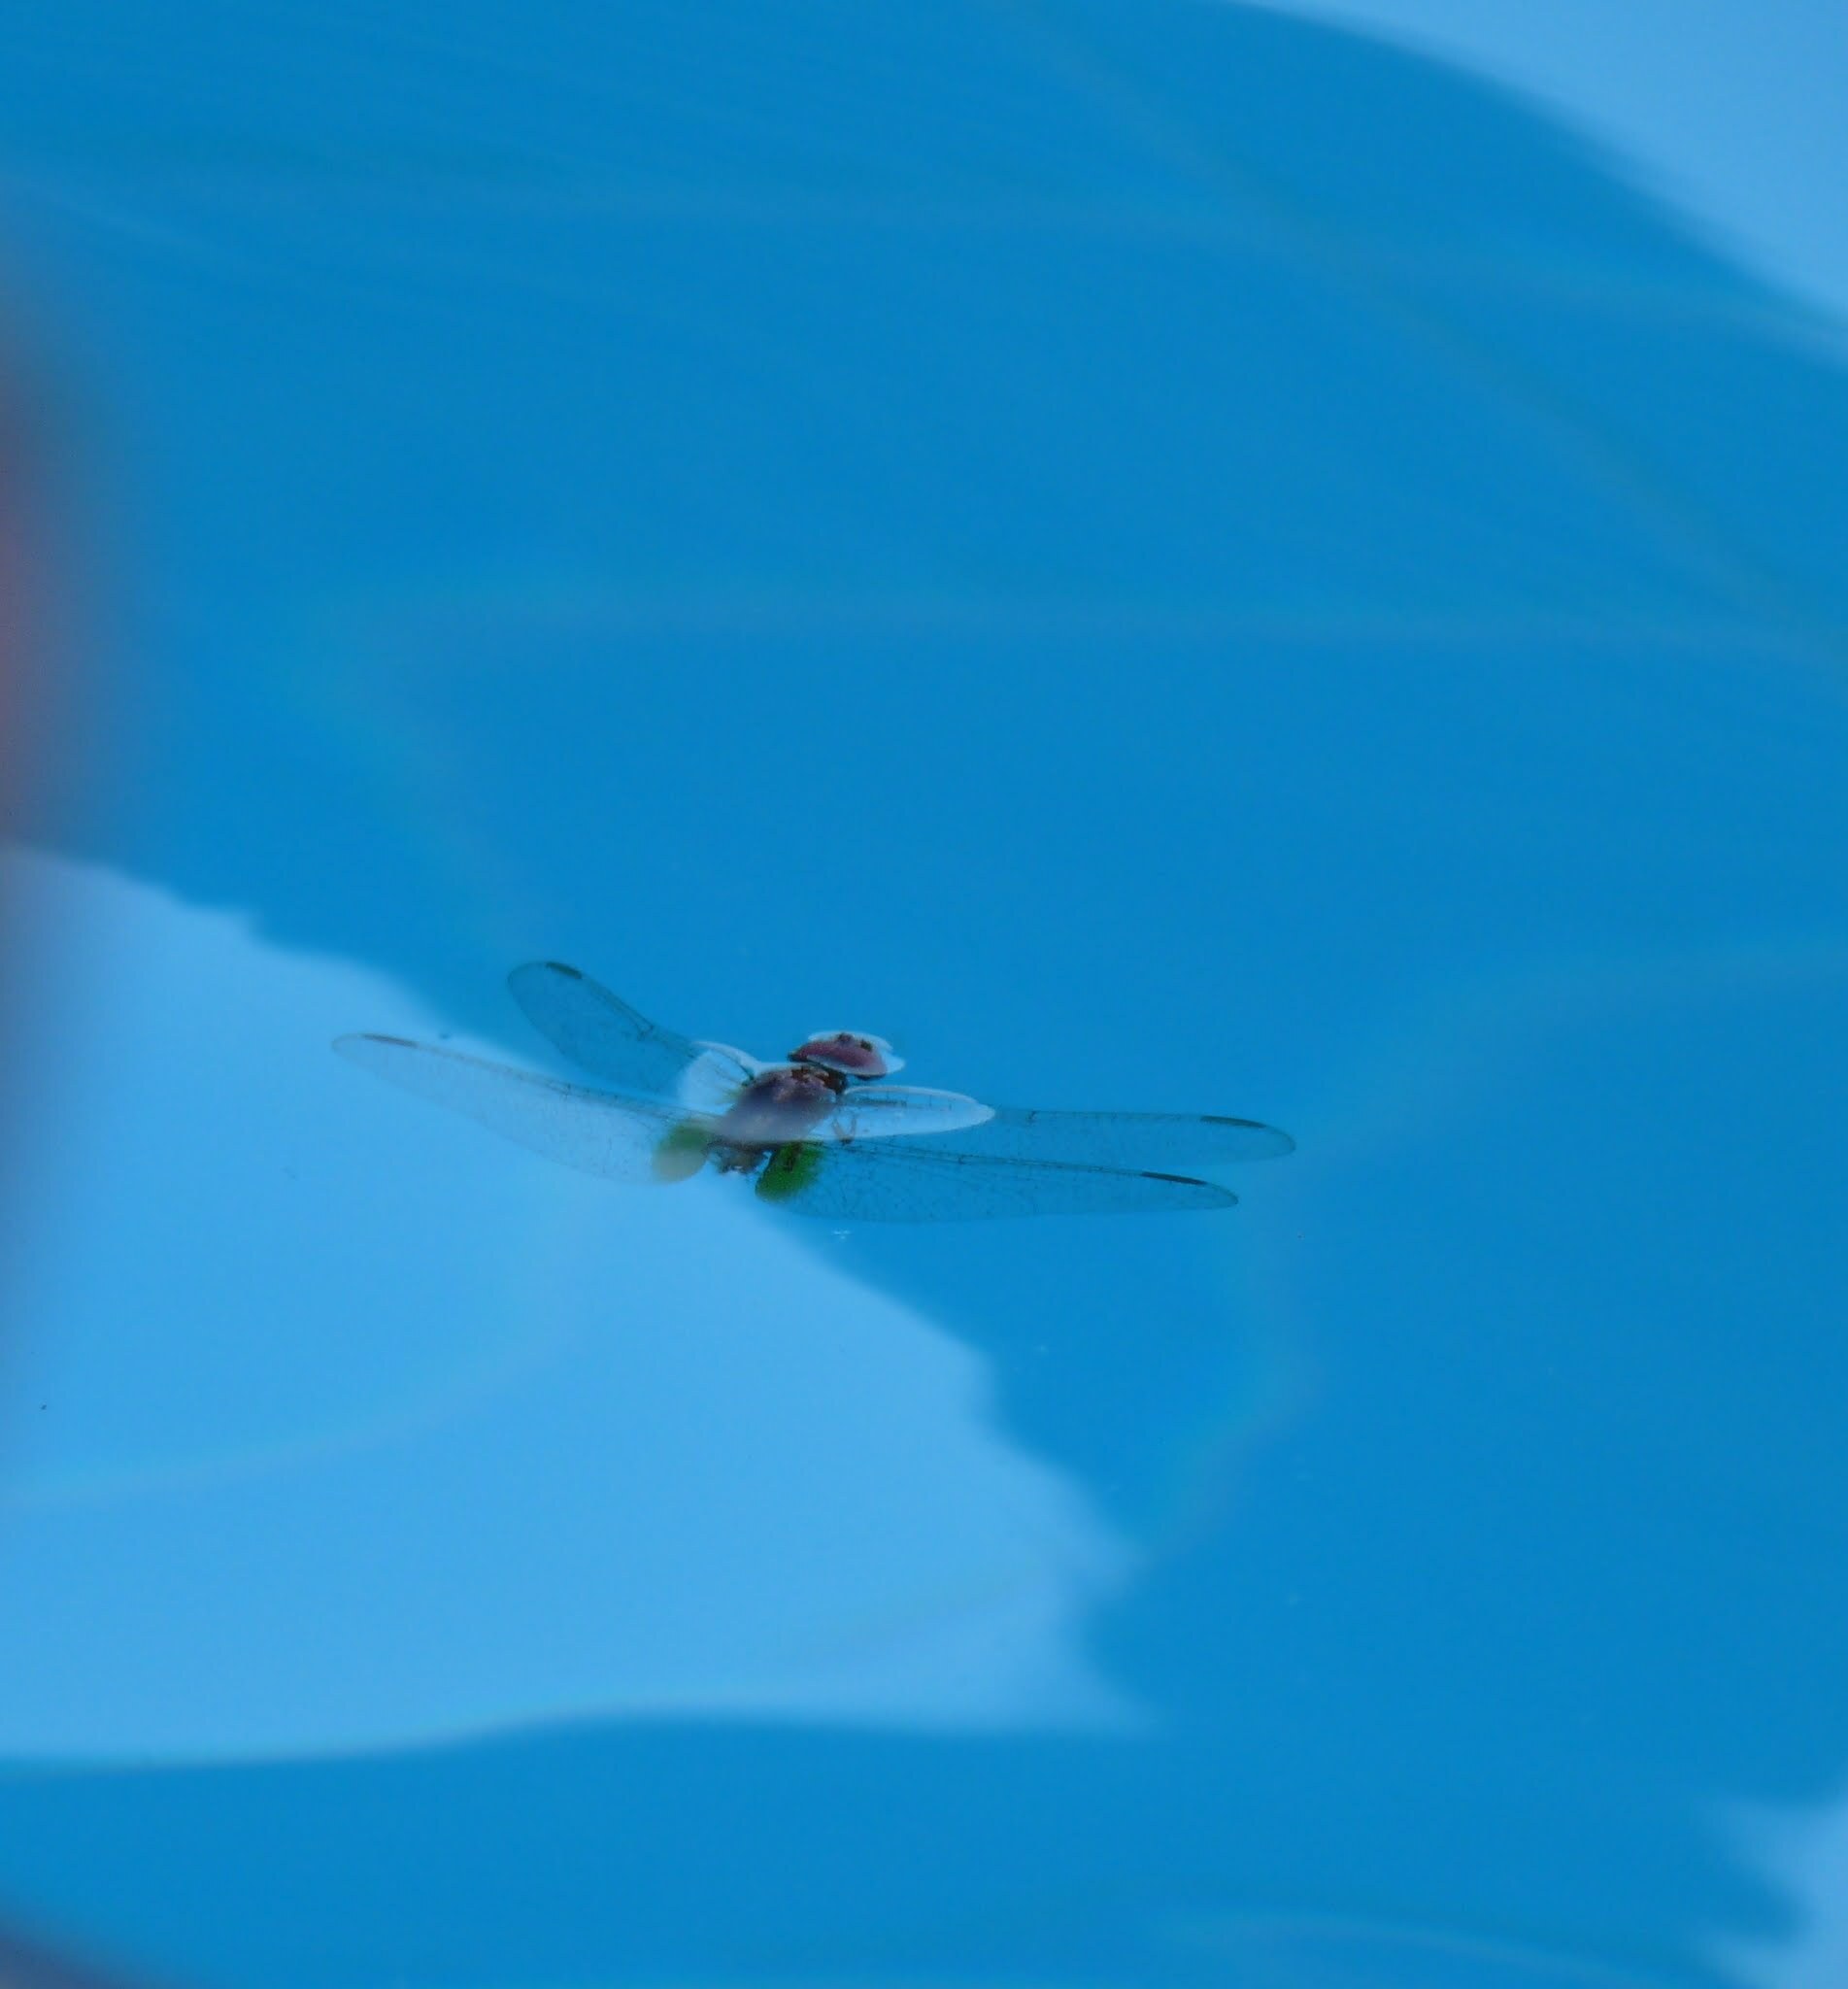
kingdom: Animalia
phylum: Arthropoda
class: Insecta
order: Odonata
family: Libellulidae
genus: Crocothemis
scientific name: Crocothemis erythraea
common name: Scarlet dragonfly
